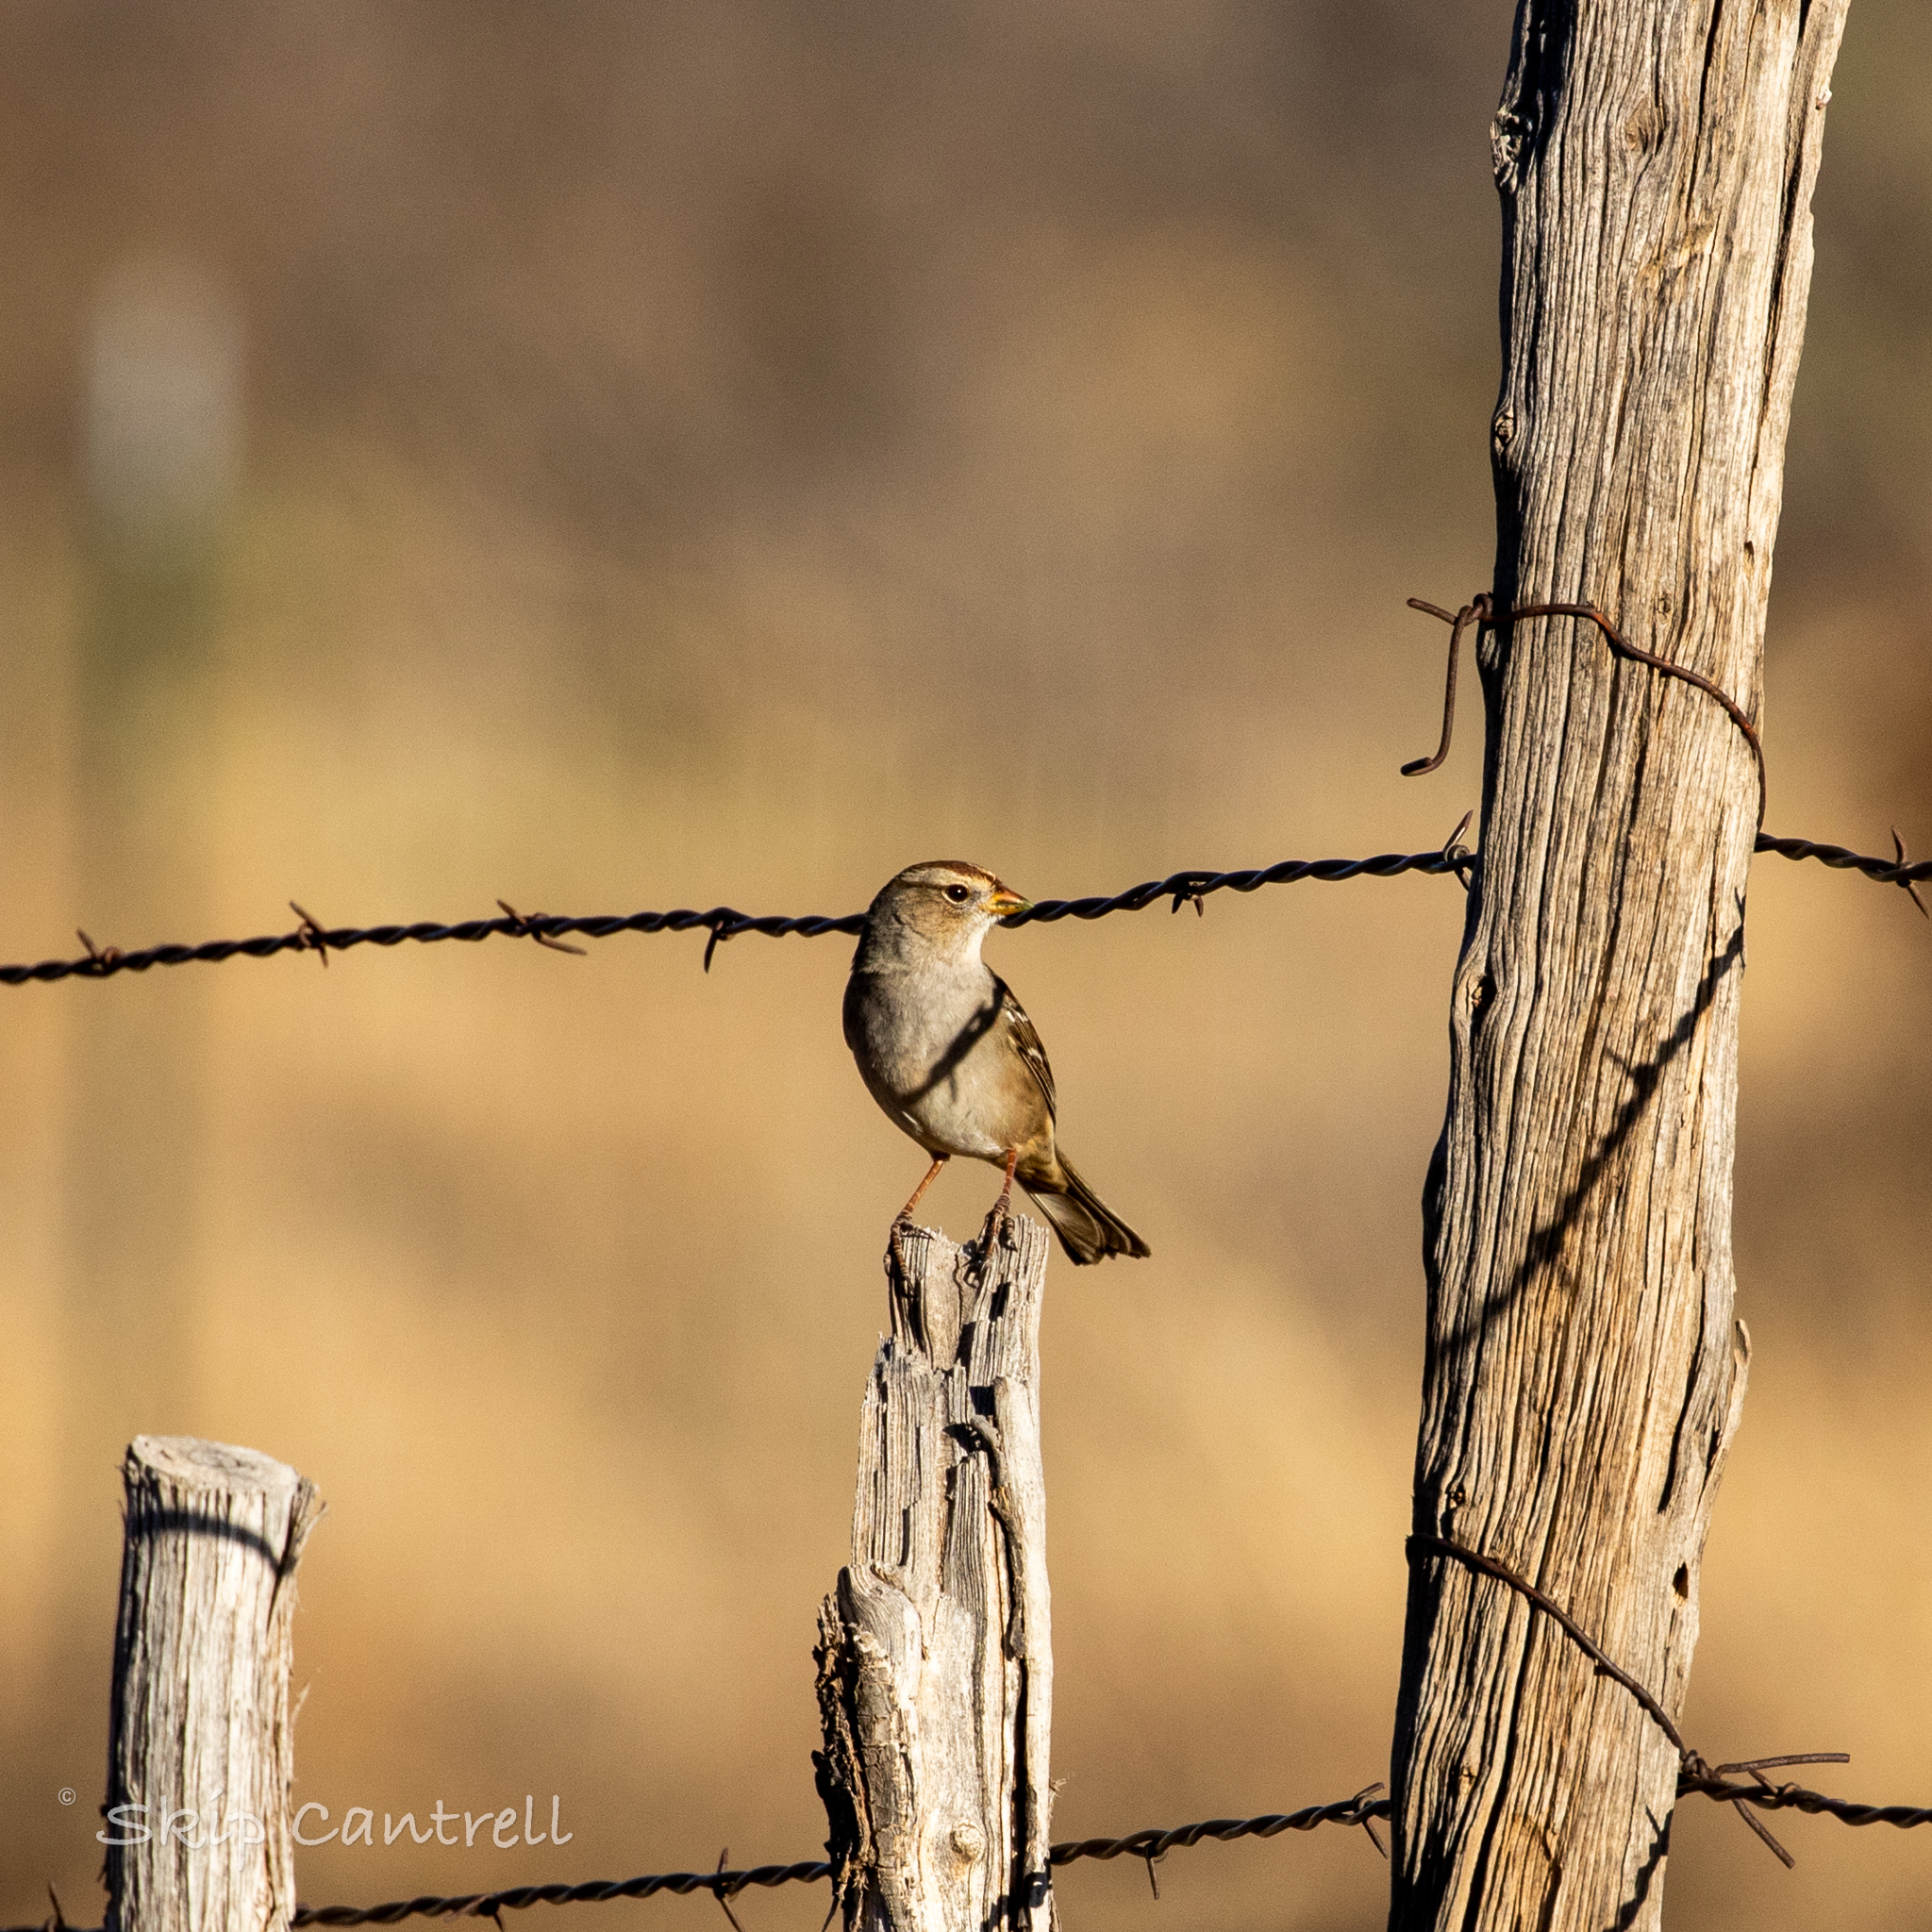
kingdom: Animalia
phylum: Chordata
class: Aves
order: Passeriformes
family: Passerellidae
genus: Zonotrichia
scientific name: Zonotrichia leucophrys
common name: White-crowned sparrow
